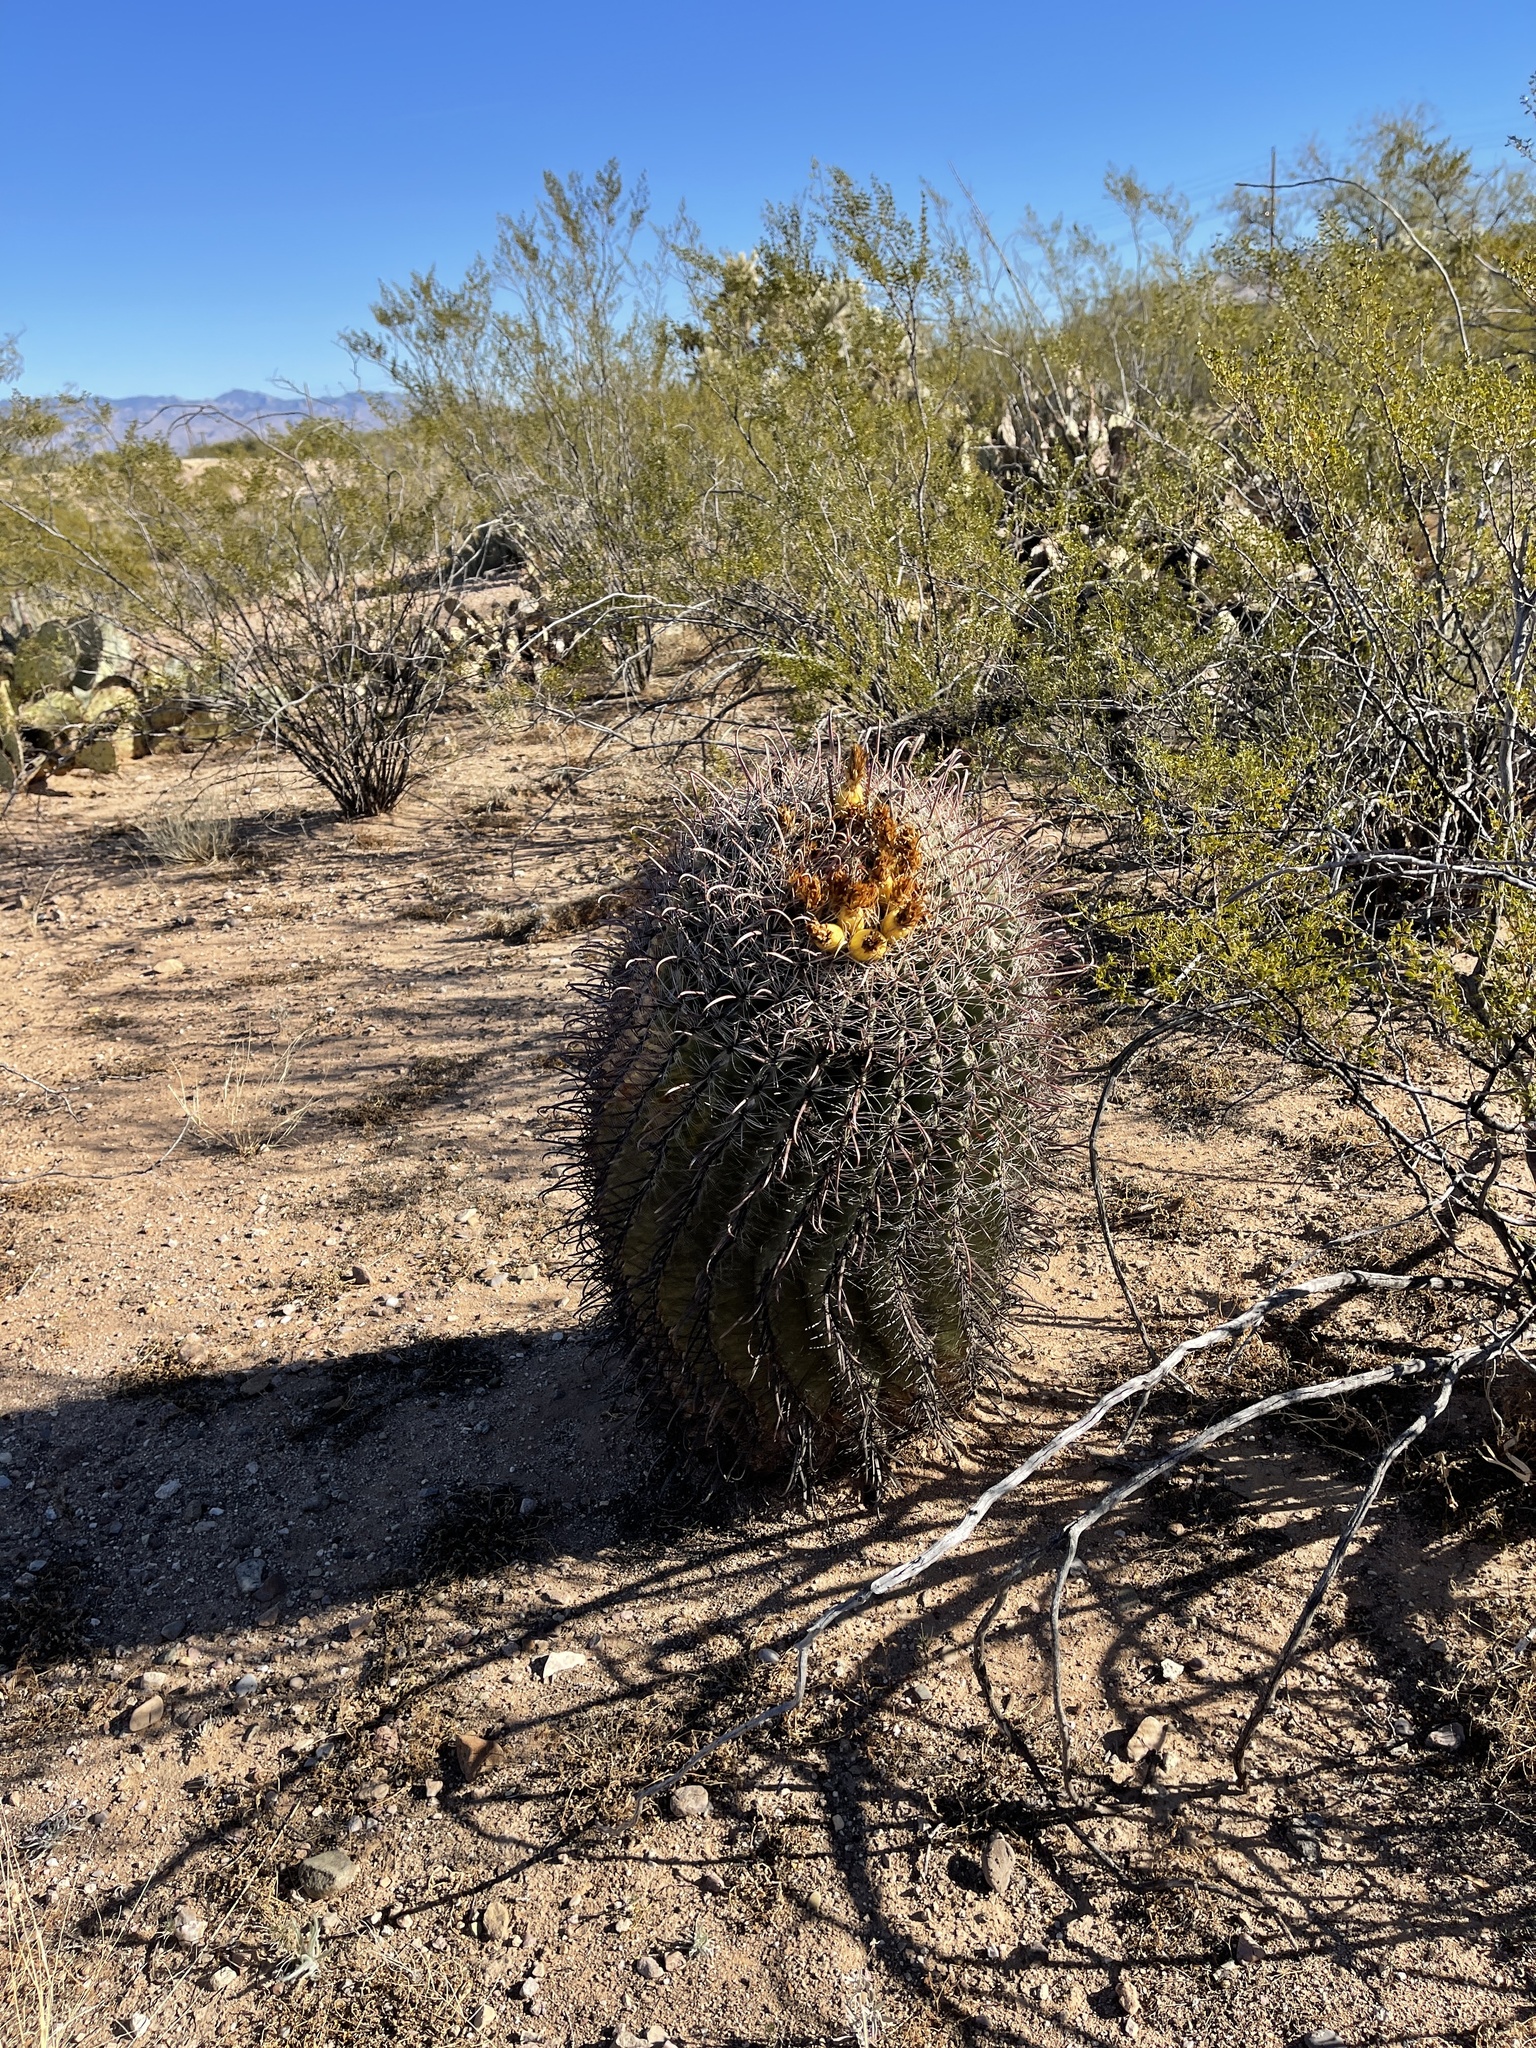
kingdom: Plantae
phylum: Tracheophyta
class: Magnoliopsida
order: Caryophyllales
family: Cactaceae
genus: Ferocactus
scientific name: Ferocactus wislizeni
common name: Candy barrel cactus
